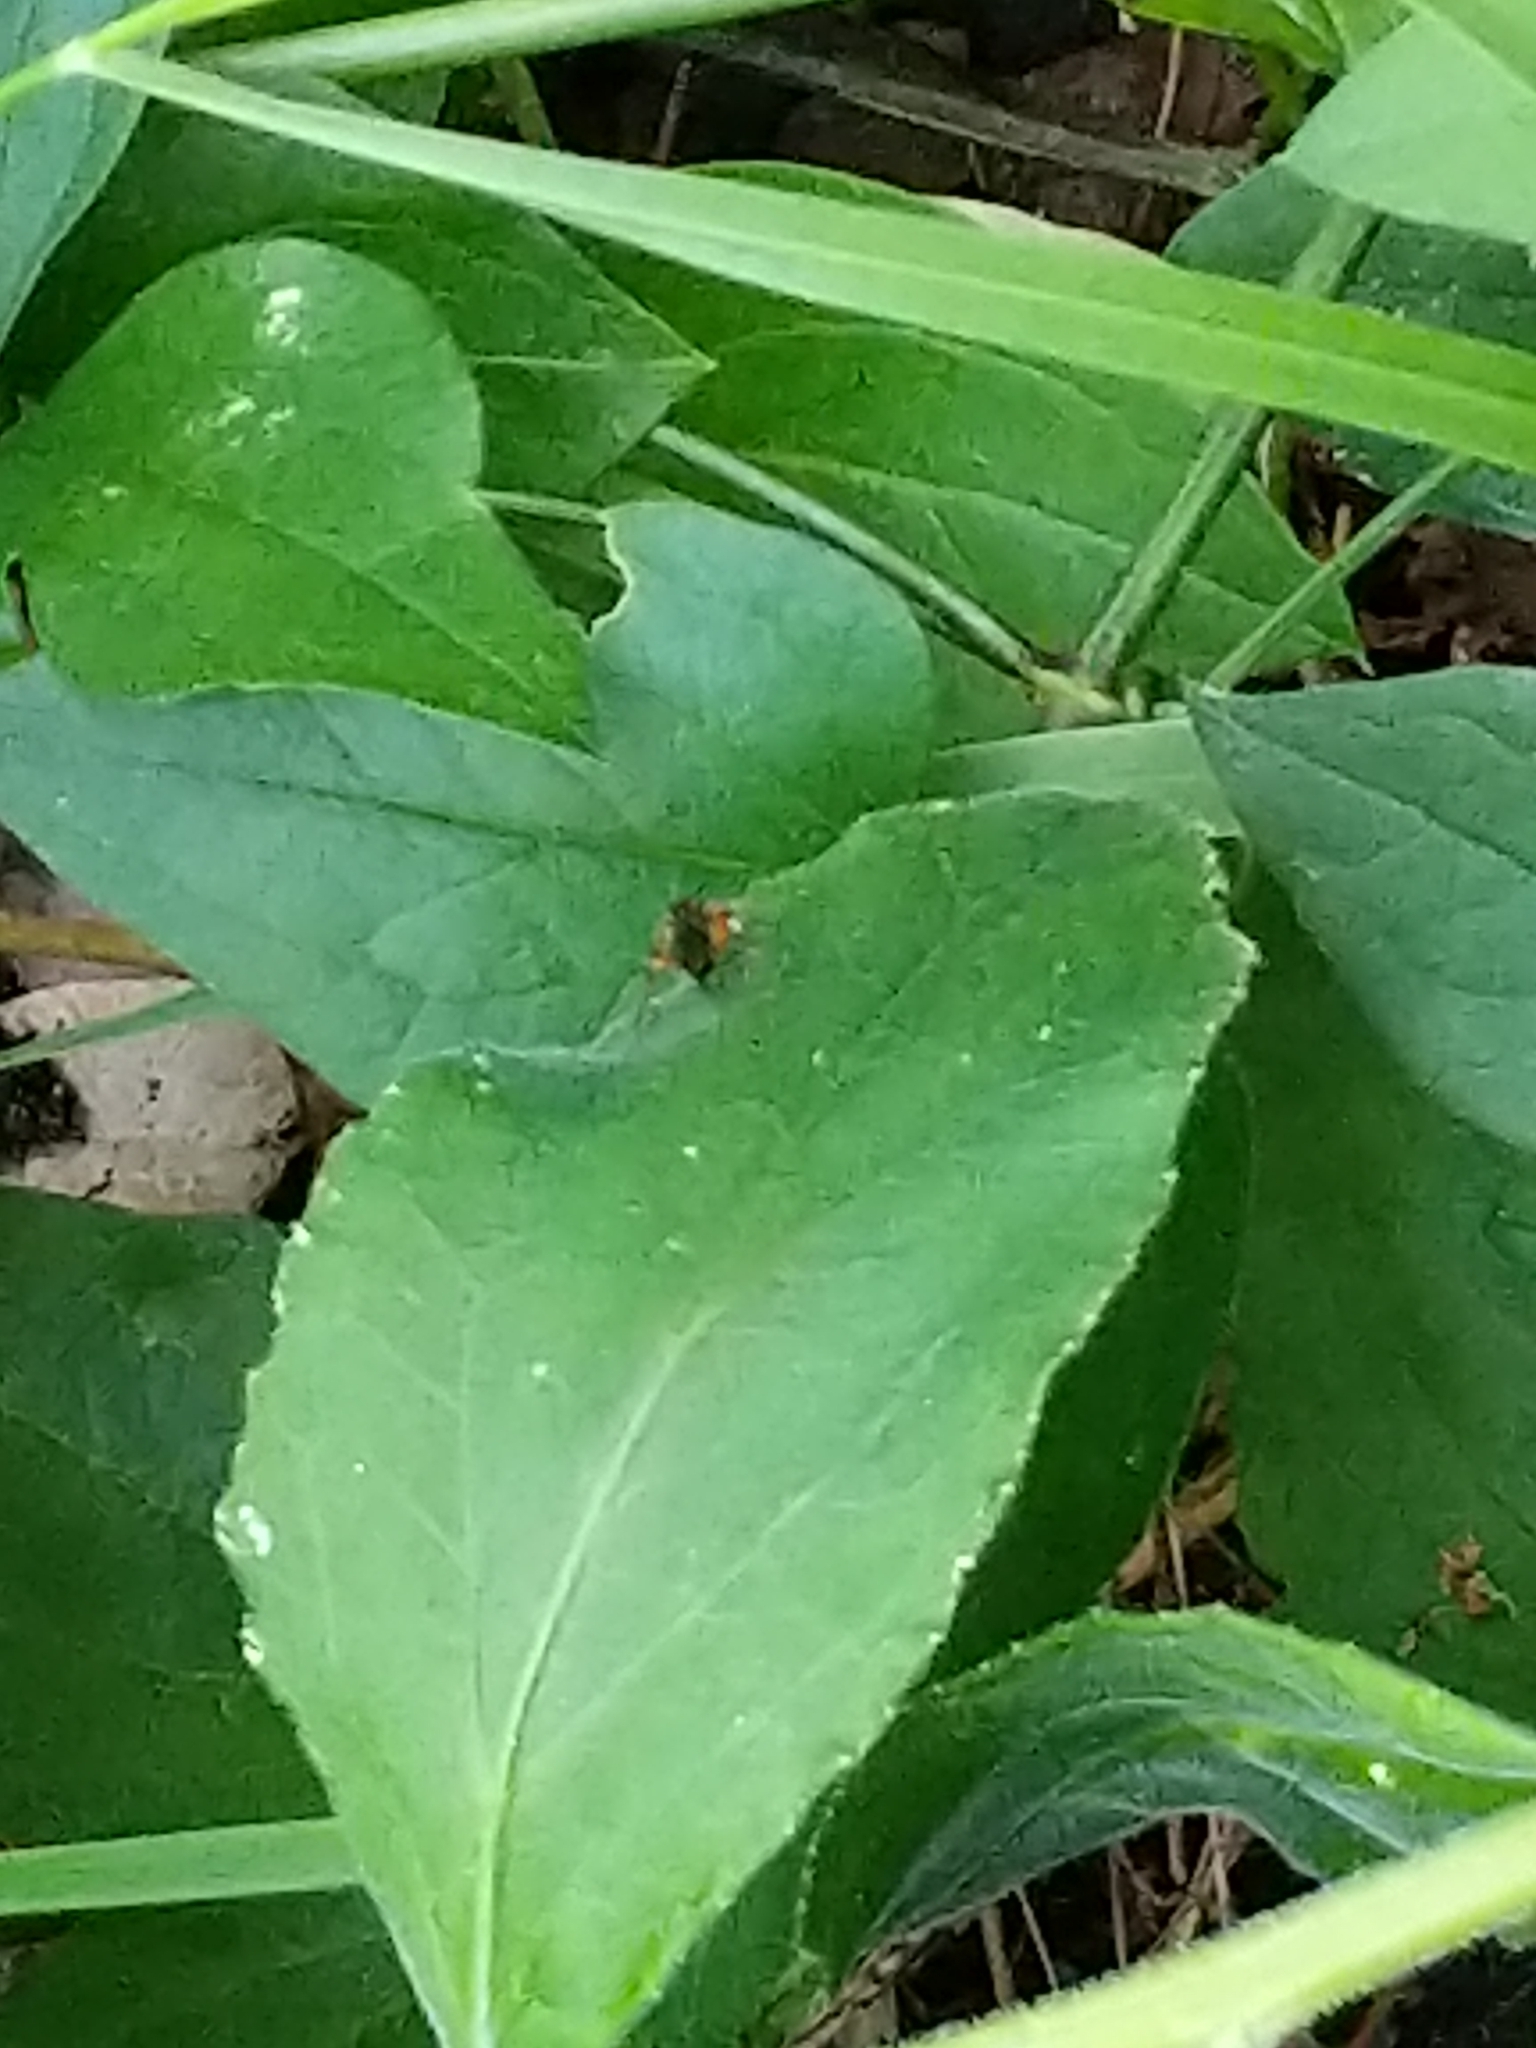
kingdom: Plantae
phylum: Tracheophyta
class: Magnoliopsida
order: Asterales
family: Campanulaceae
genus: Lobelia
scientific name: Lobelia puberula
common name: Purple dewdrop
